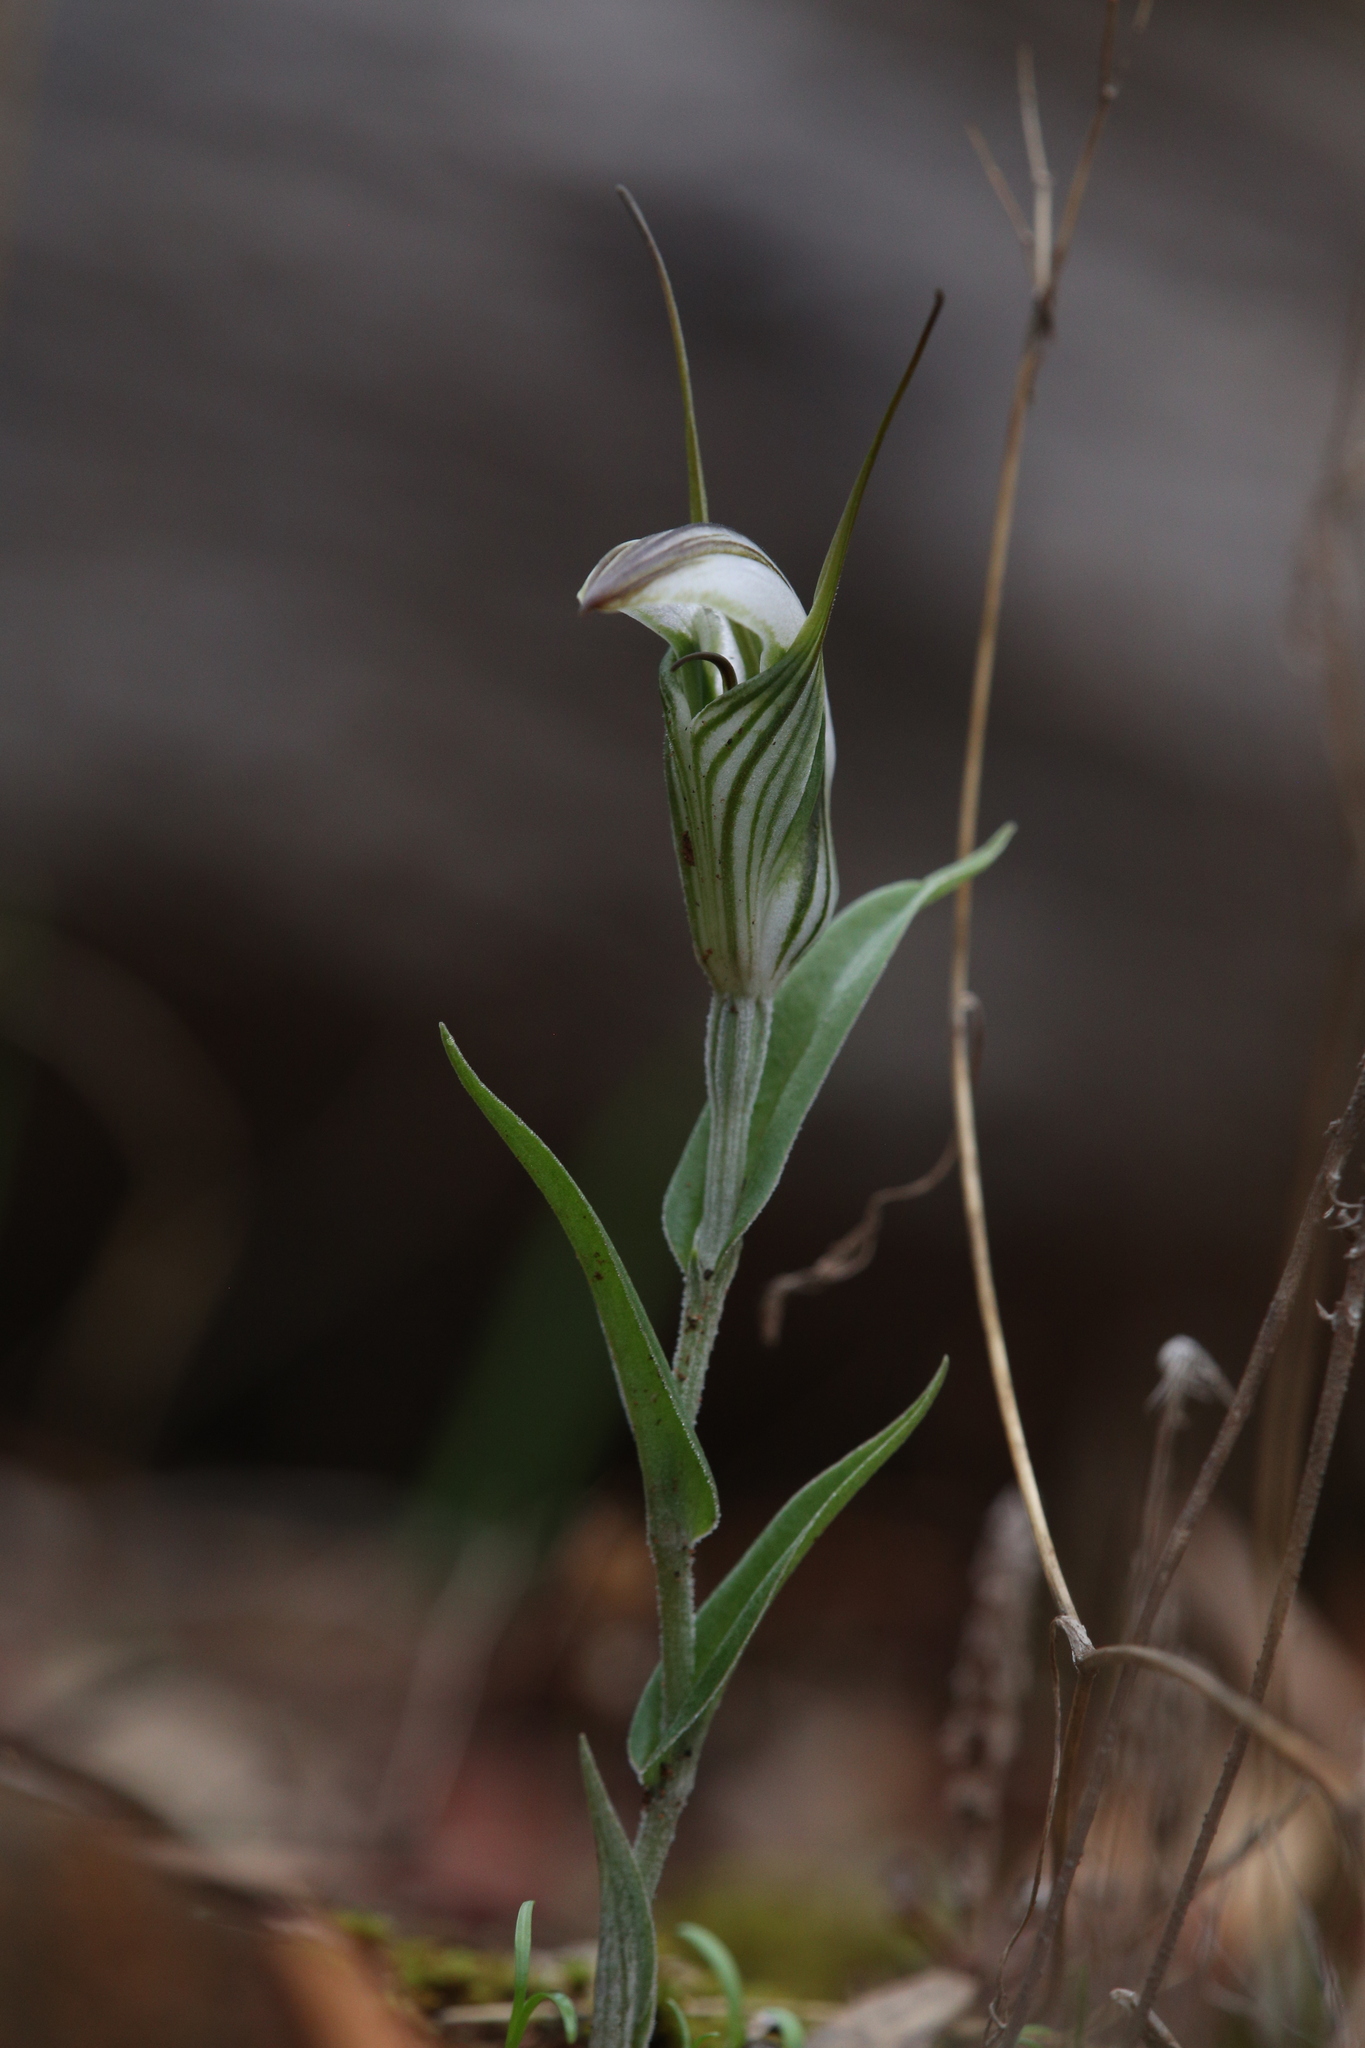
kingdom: Plantae
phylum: Tracheophyta
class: Liliopsida
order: Asparagales
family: Orchidaceae
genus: Pterostylis
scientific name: Pterostylis scabra
